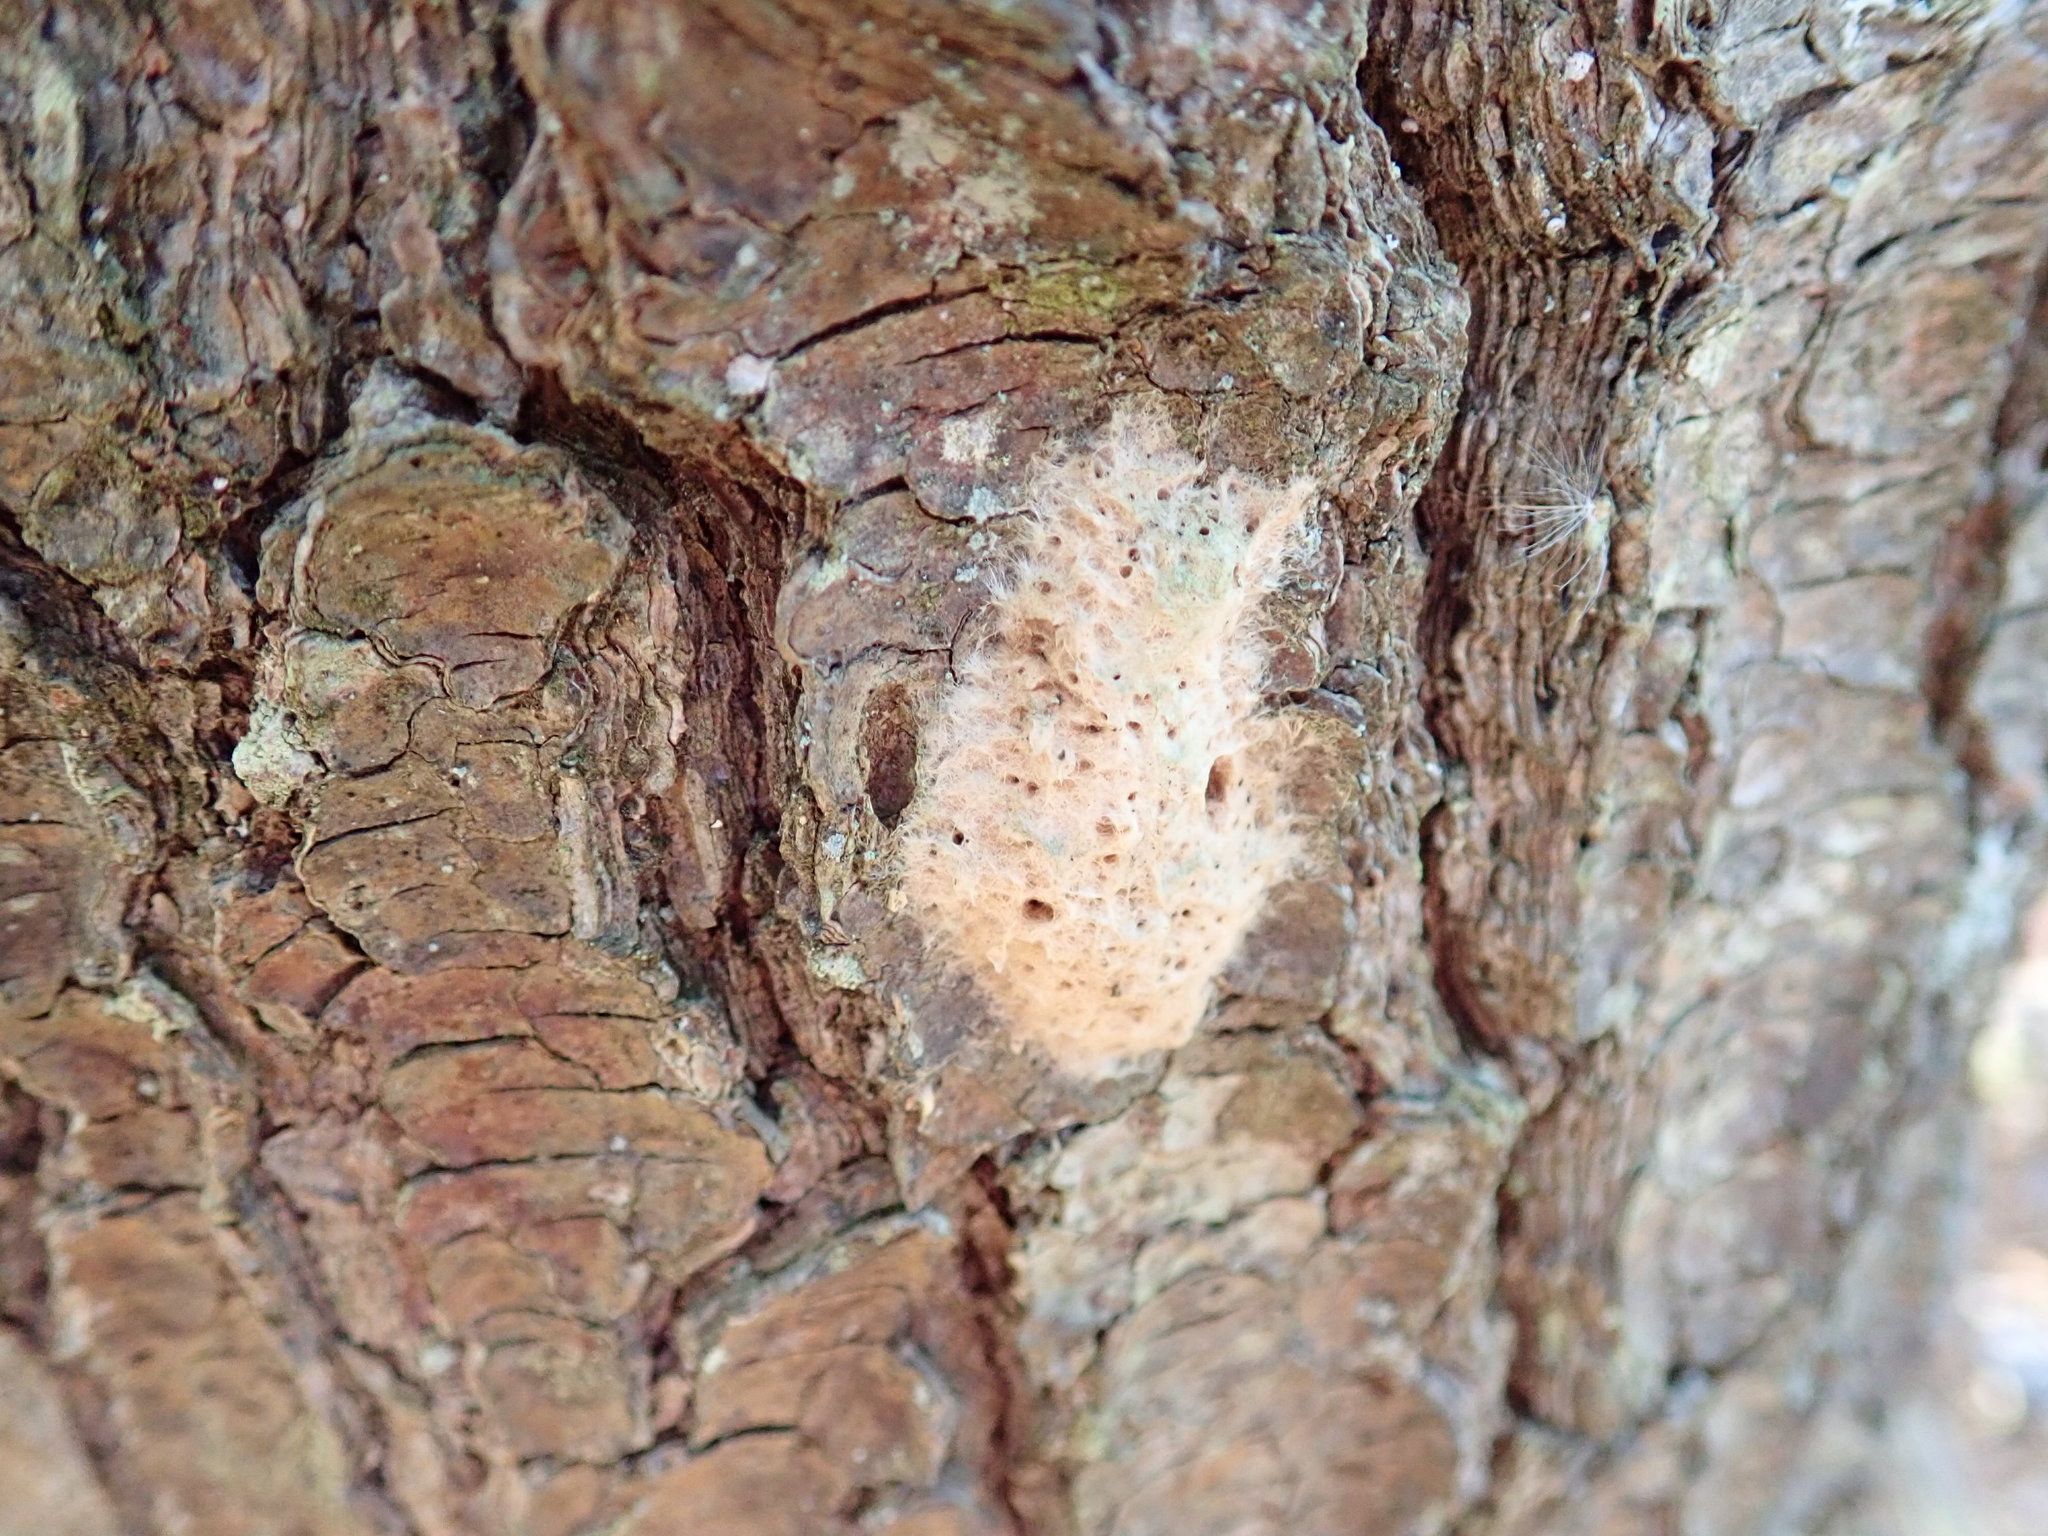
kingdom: Animalia
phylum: Arthropoda
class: Insecta
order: Lepidoptera
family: Erebidae
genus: Lymantria
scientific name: Lymantria dispar
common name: Gypsy moth
